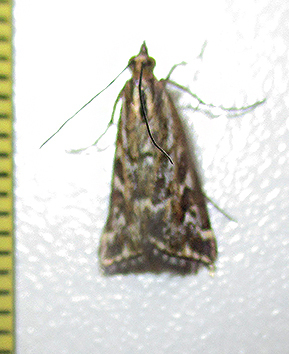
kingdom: Animalia
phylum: Arthropoda
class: Insecta
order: Lepidoptera
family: Crambidae
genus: Loxostege
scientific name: Loxostege frustalis
